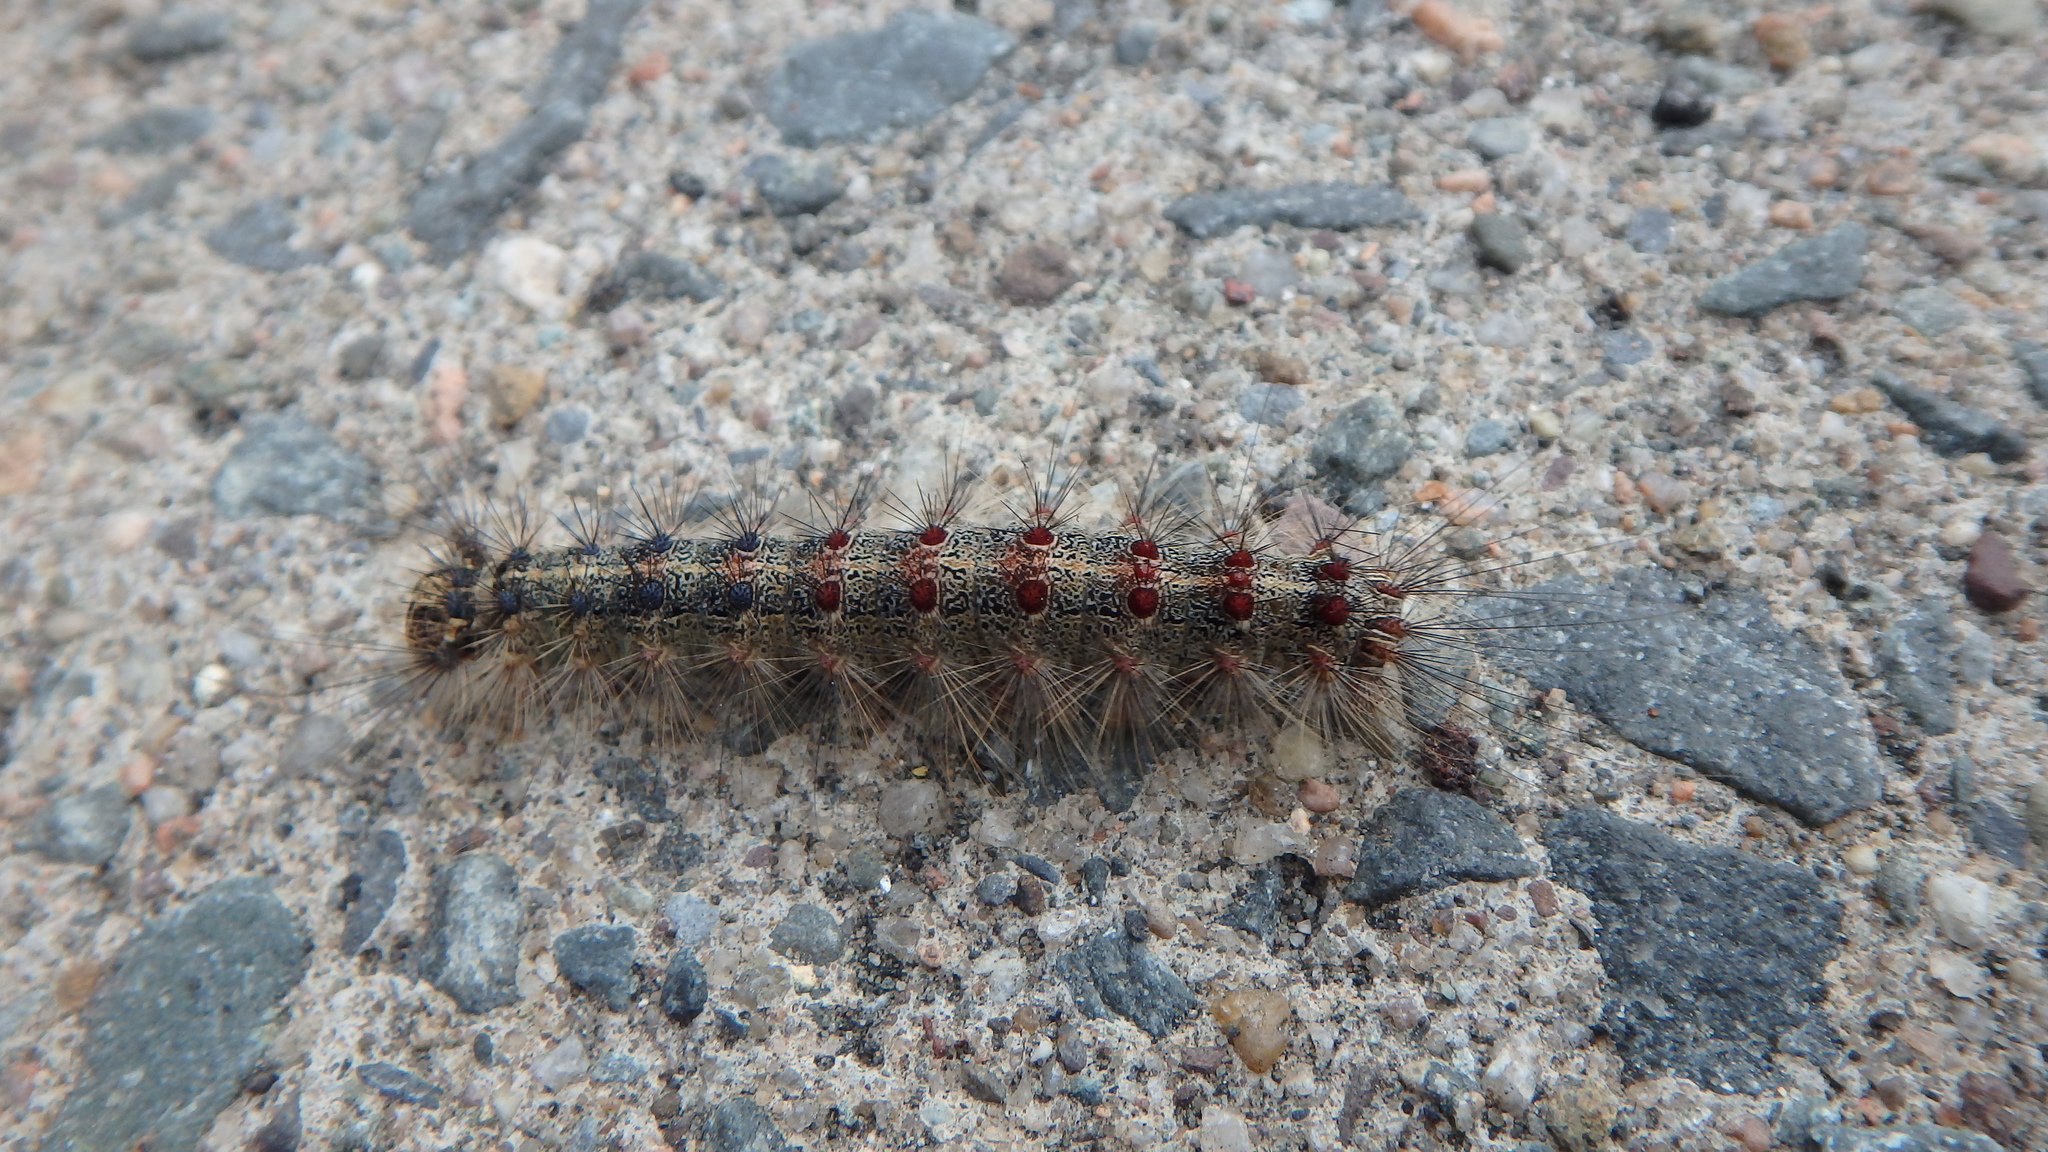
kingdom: Animalia
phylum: Arthropoda
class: Insecta
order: Lepidoptera
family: Erebidae
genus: Lymantria
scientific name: Lymantria dispar
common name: Gypsy moth
